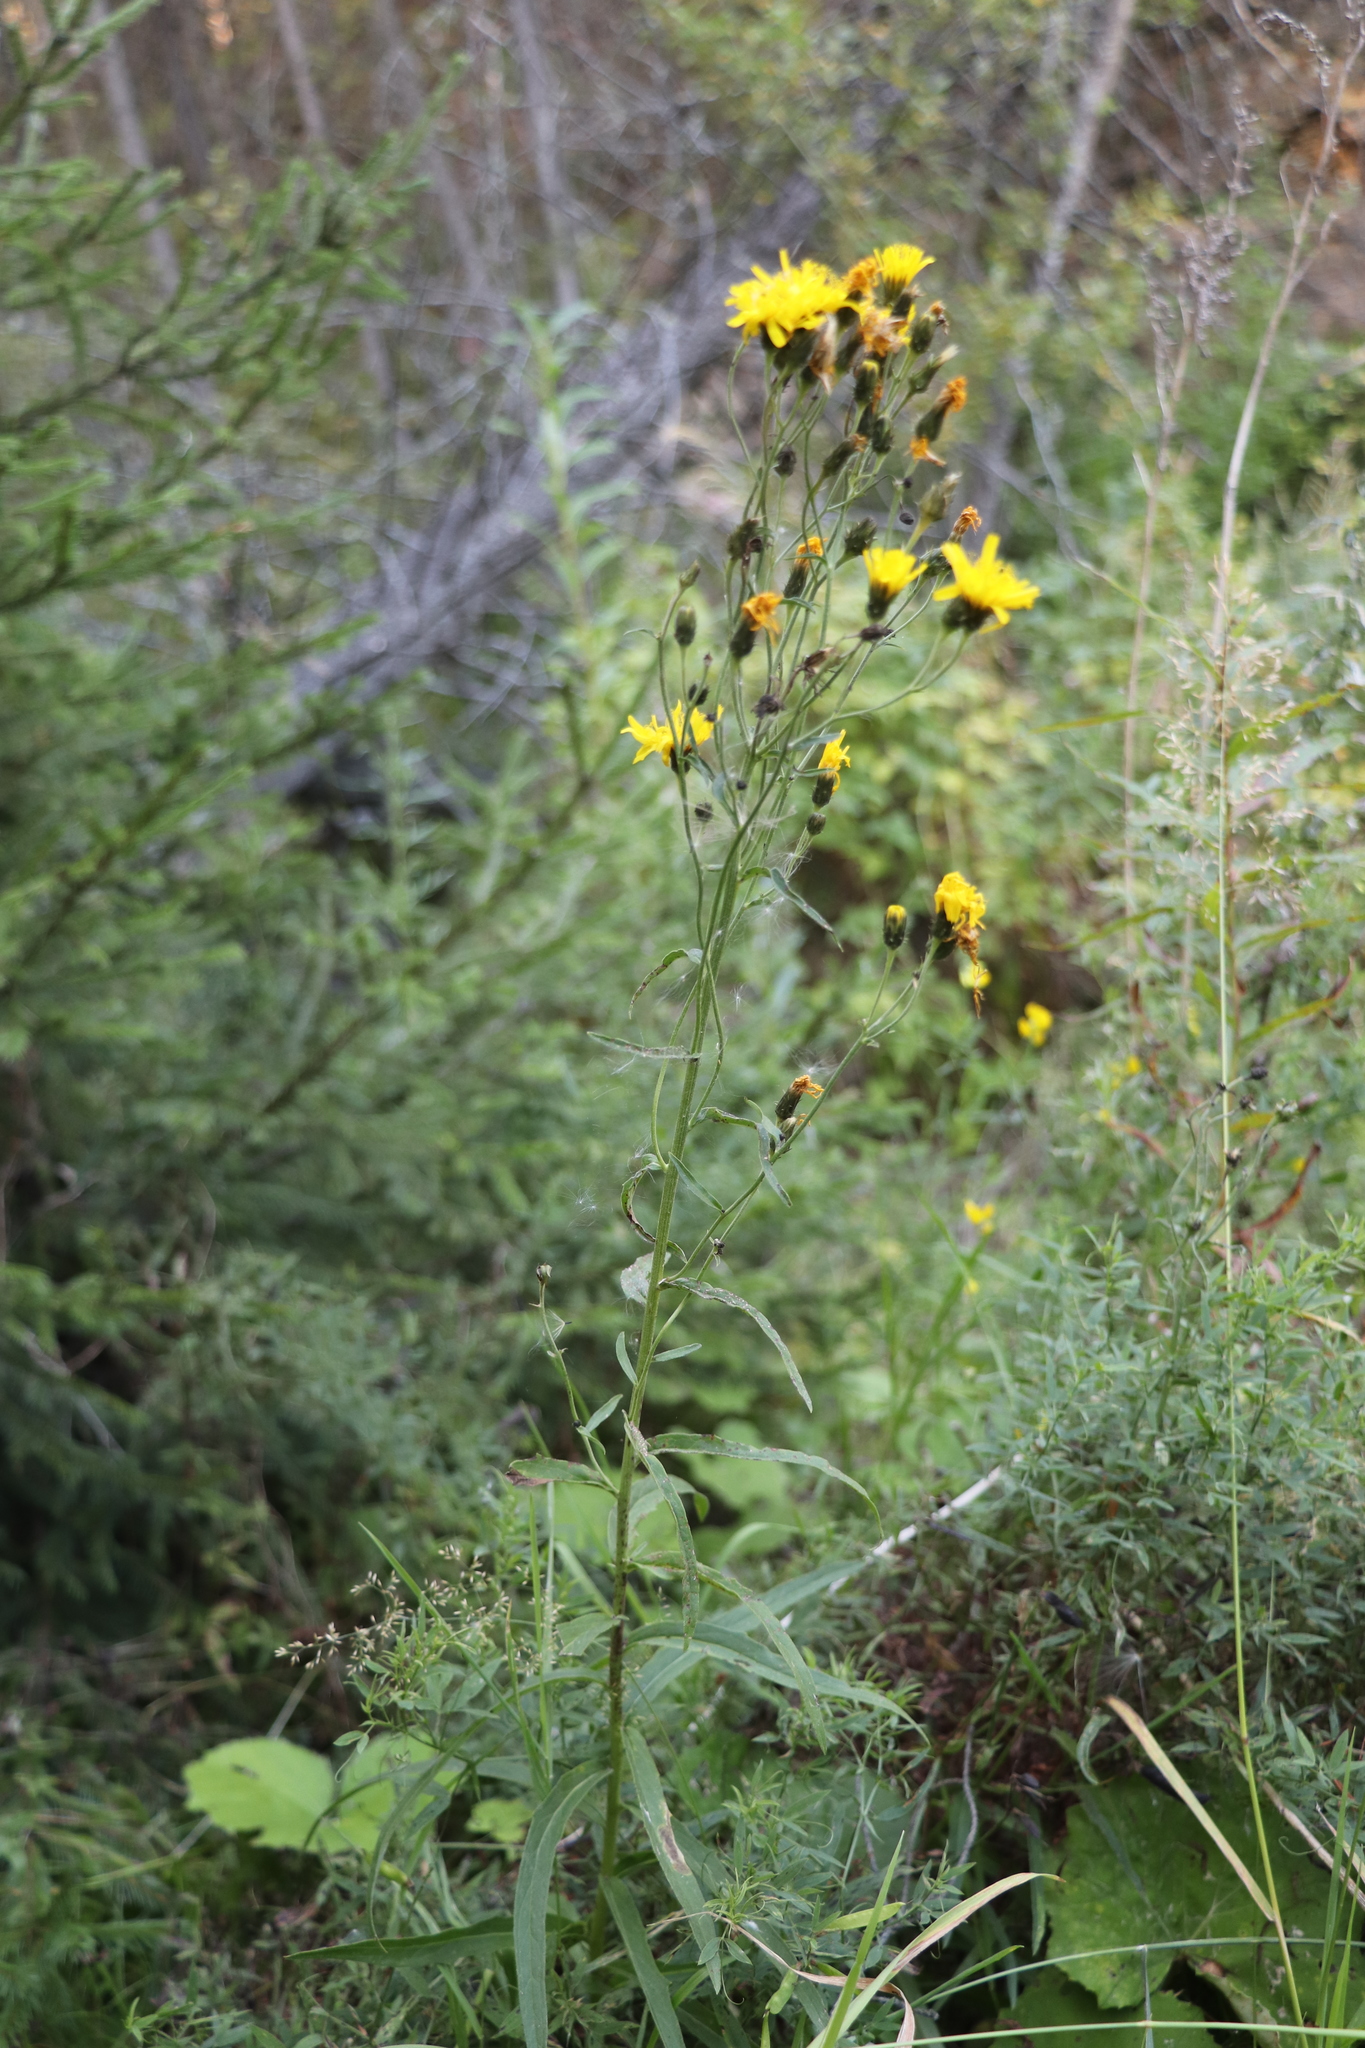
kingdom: Plantae
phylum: Tracheophyta
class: Magnoliopsida
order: Asterales
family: Asteraceae
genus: Hieracium
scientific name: Hieracium umbellatum
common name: Northern hawkweed
